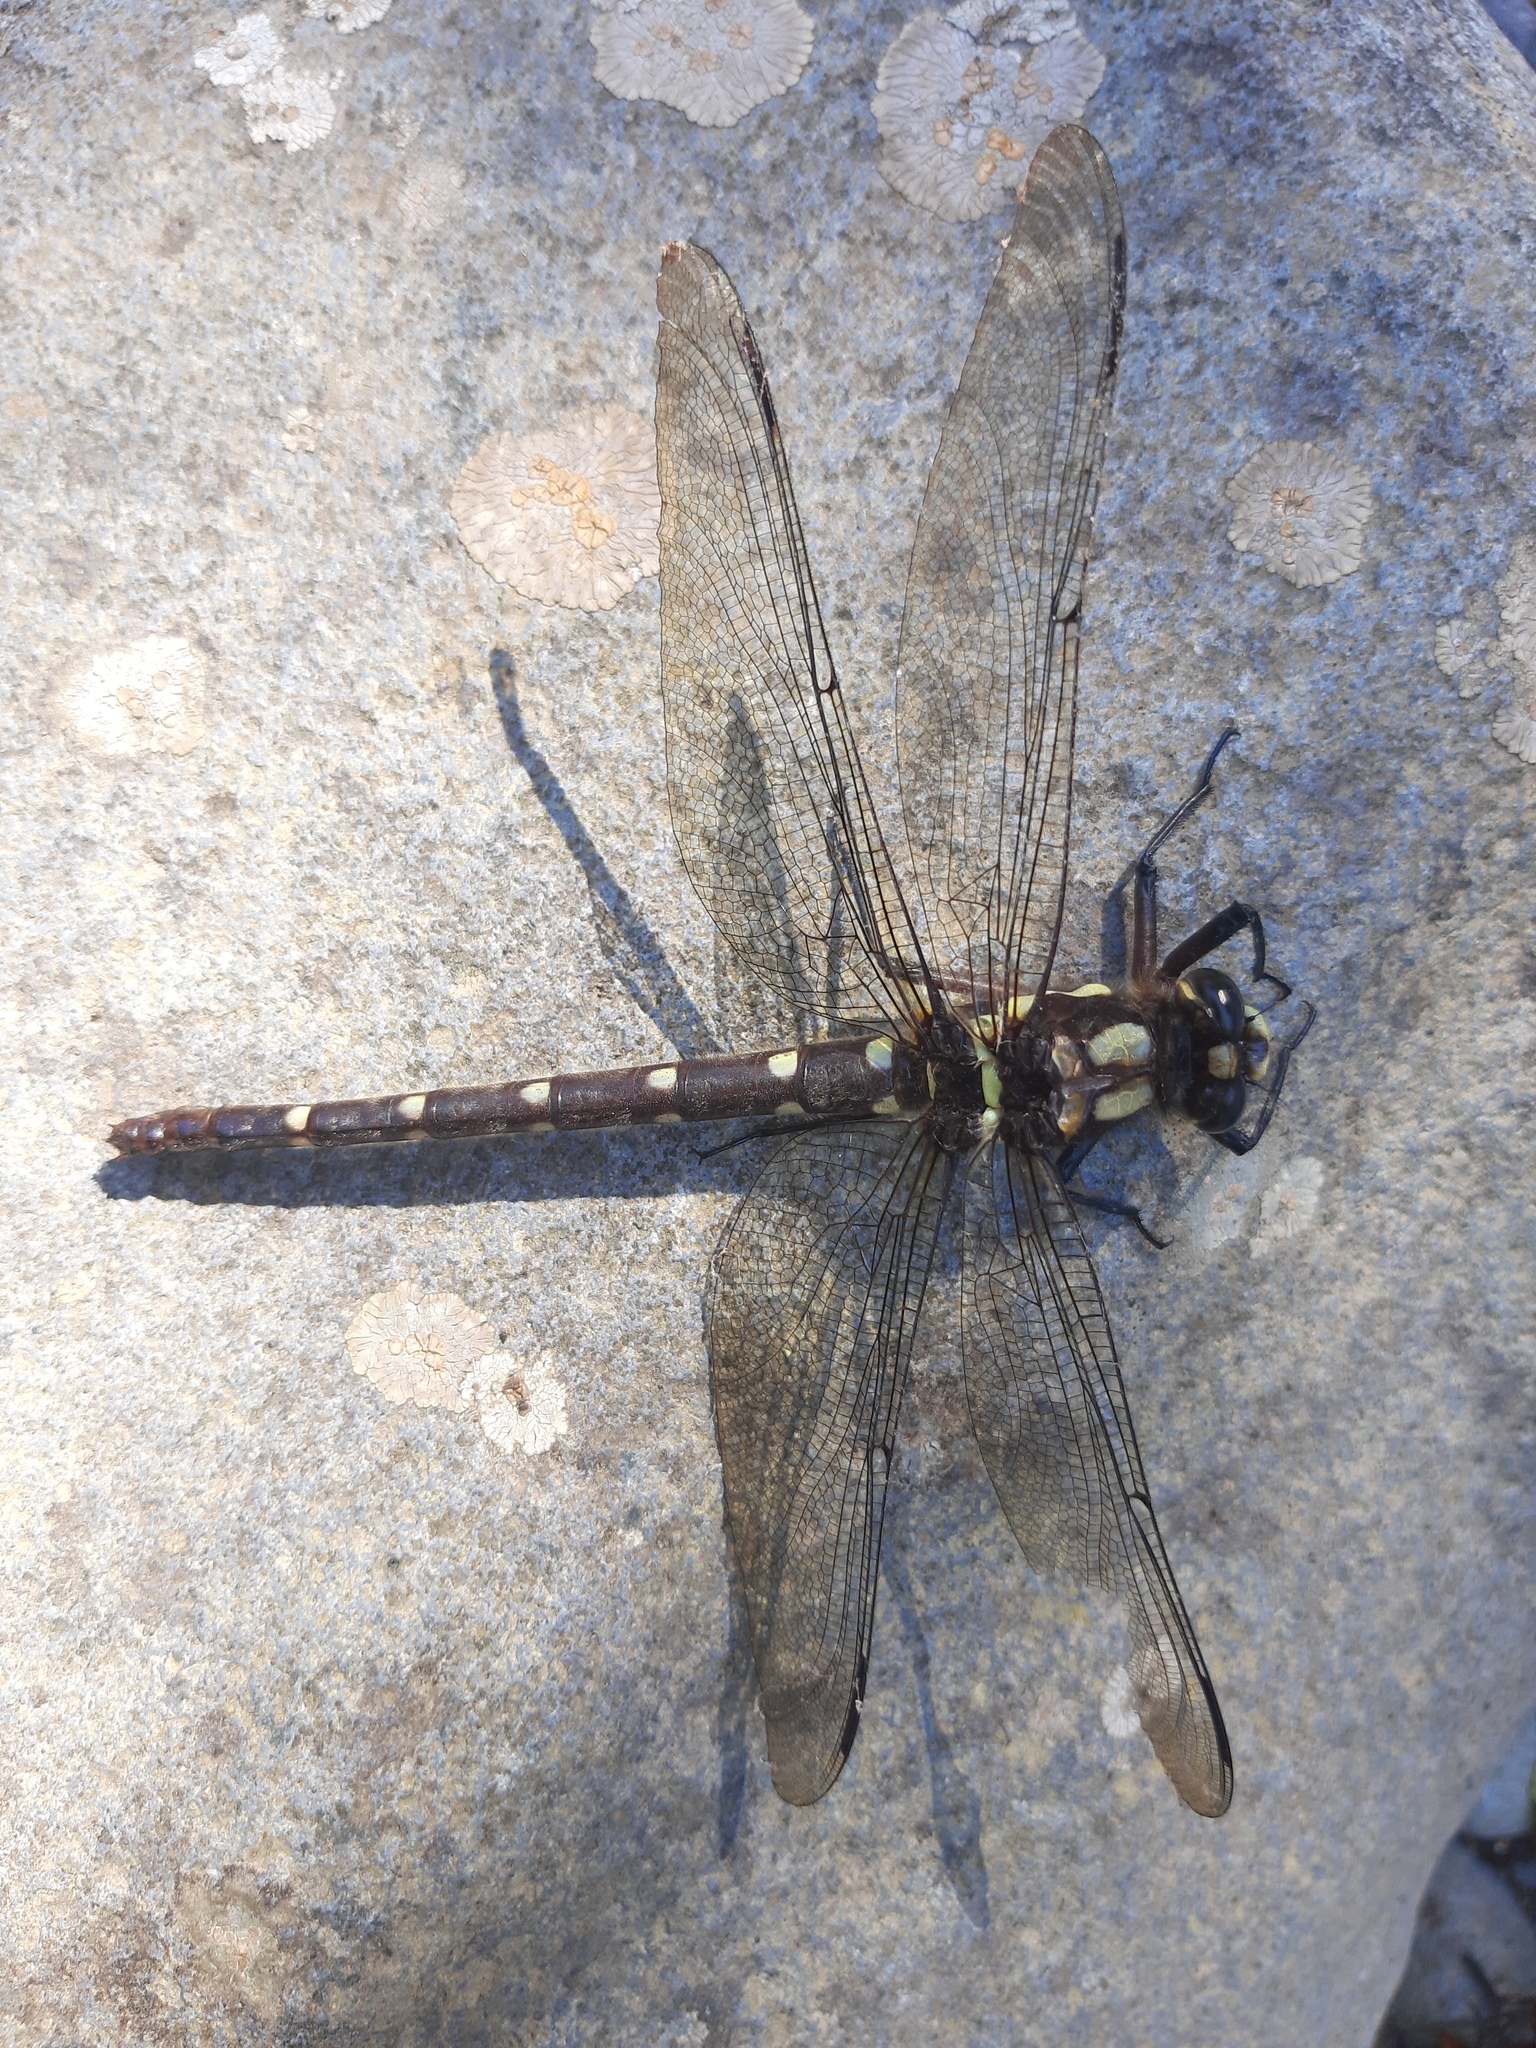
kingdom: Animalia
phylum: Arthropoda
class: Insecta
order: Odonata
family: Petaluridae
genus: Uropetala
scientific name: Uropetala carovei
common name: Bush giant dragonfly
